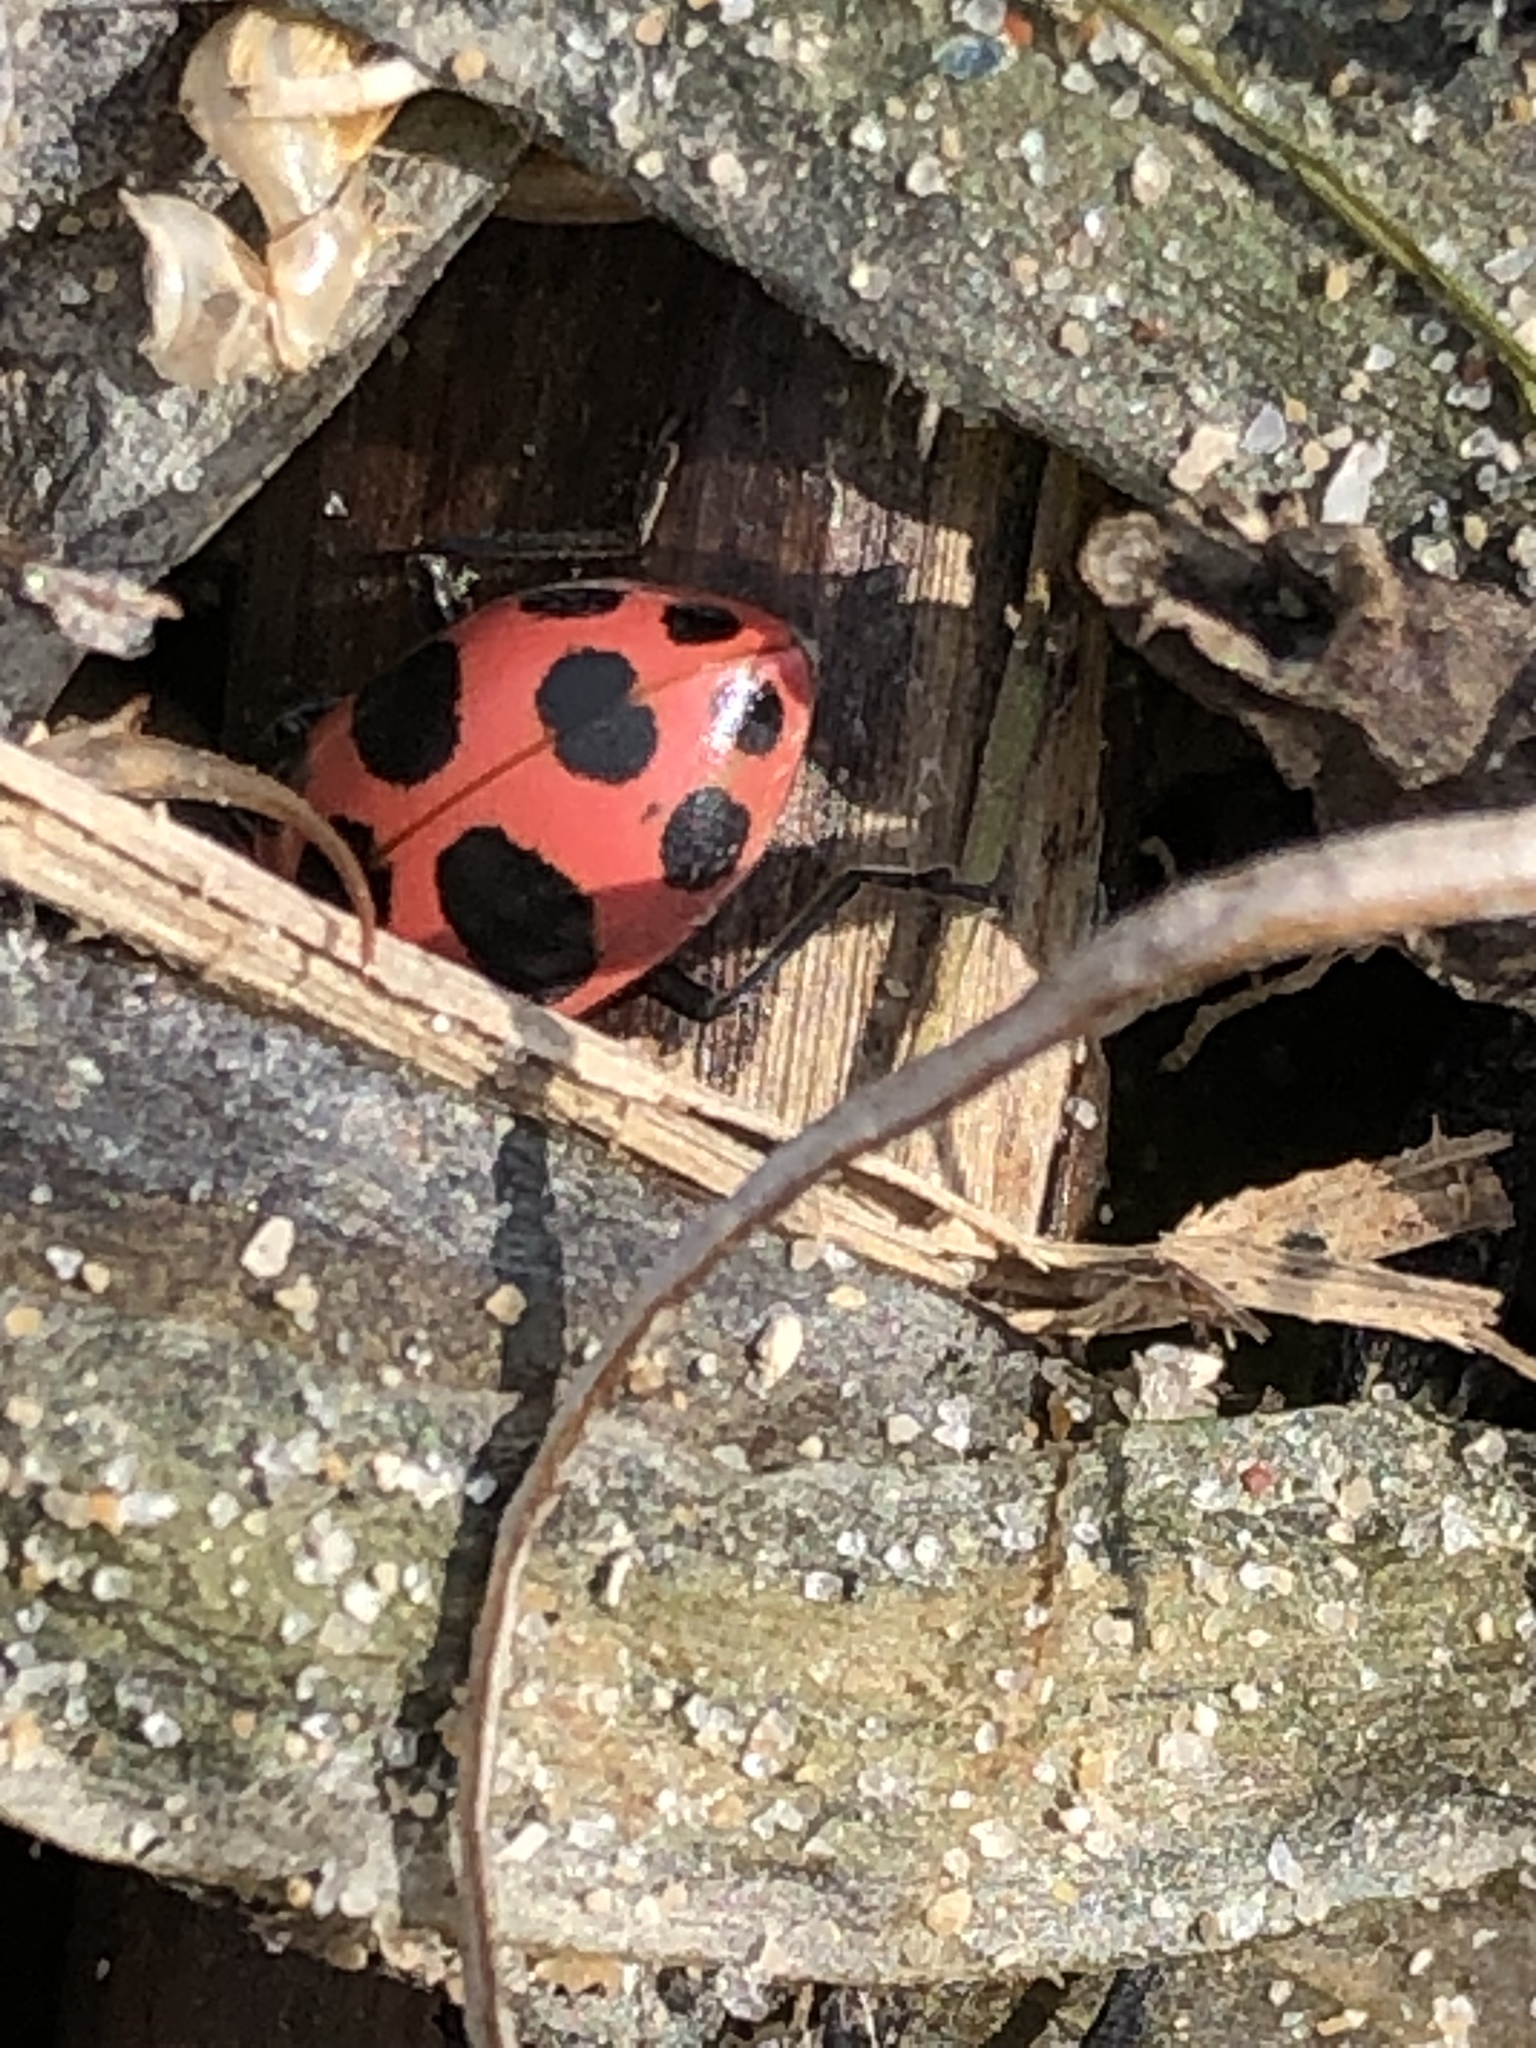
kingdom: Animalia
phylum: Arthropoda
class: Insecta
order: Coleoptera
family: Coccinellidae
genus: Coleomegilla
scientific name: Coleomegilla maculata
